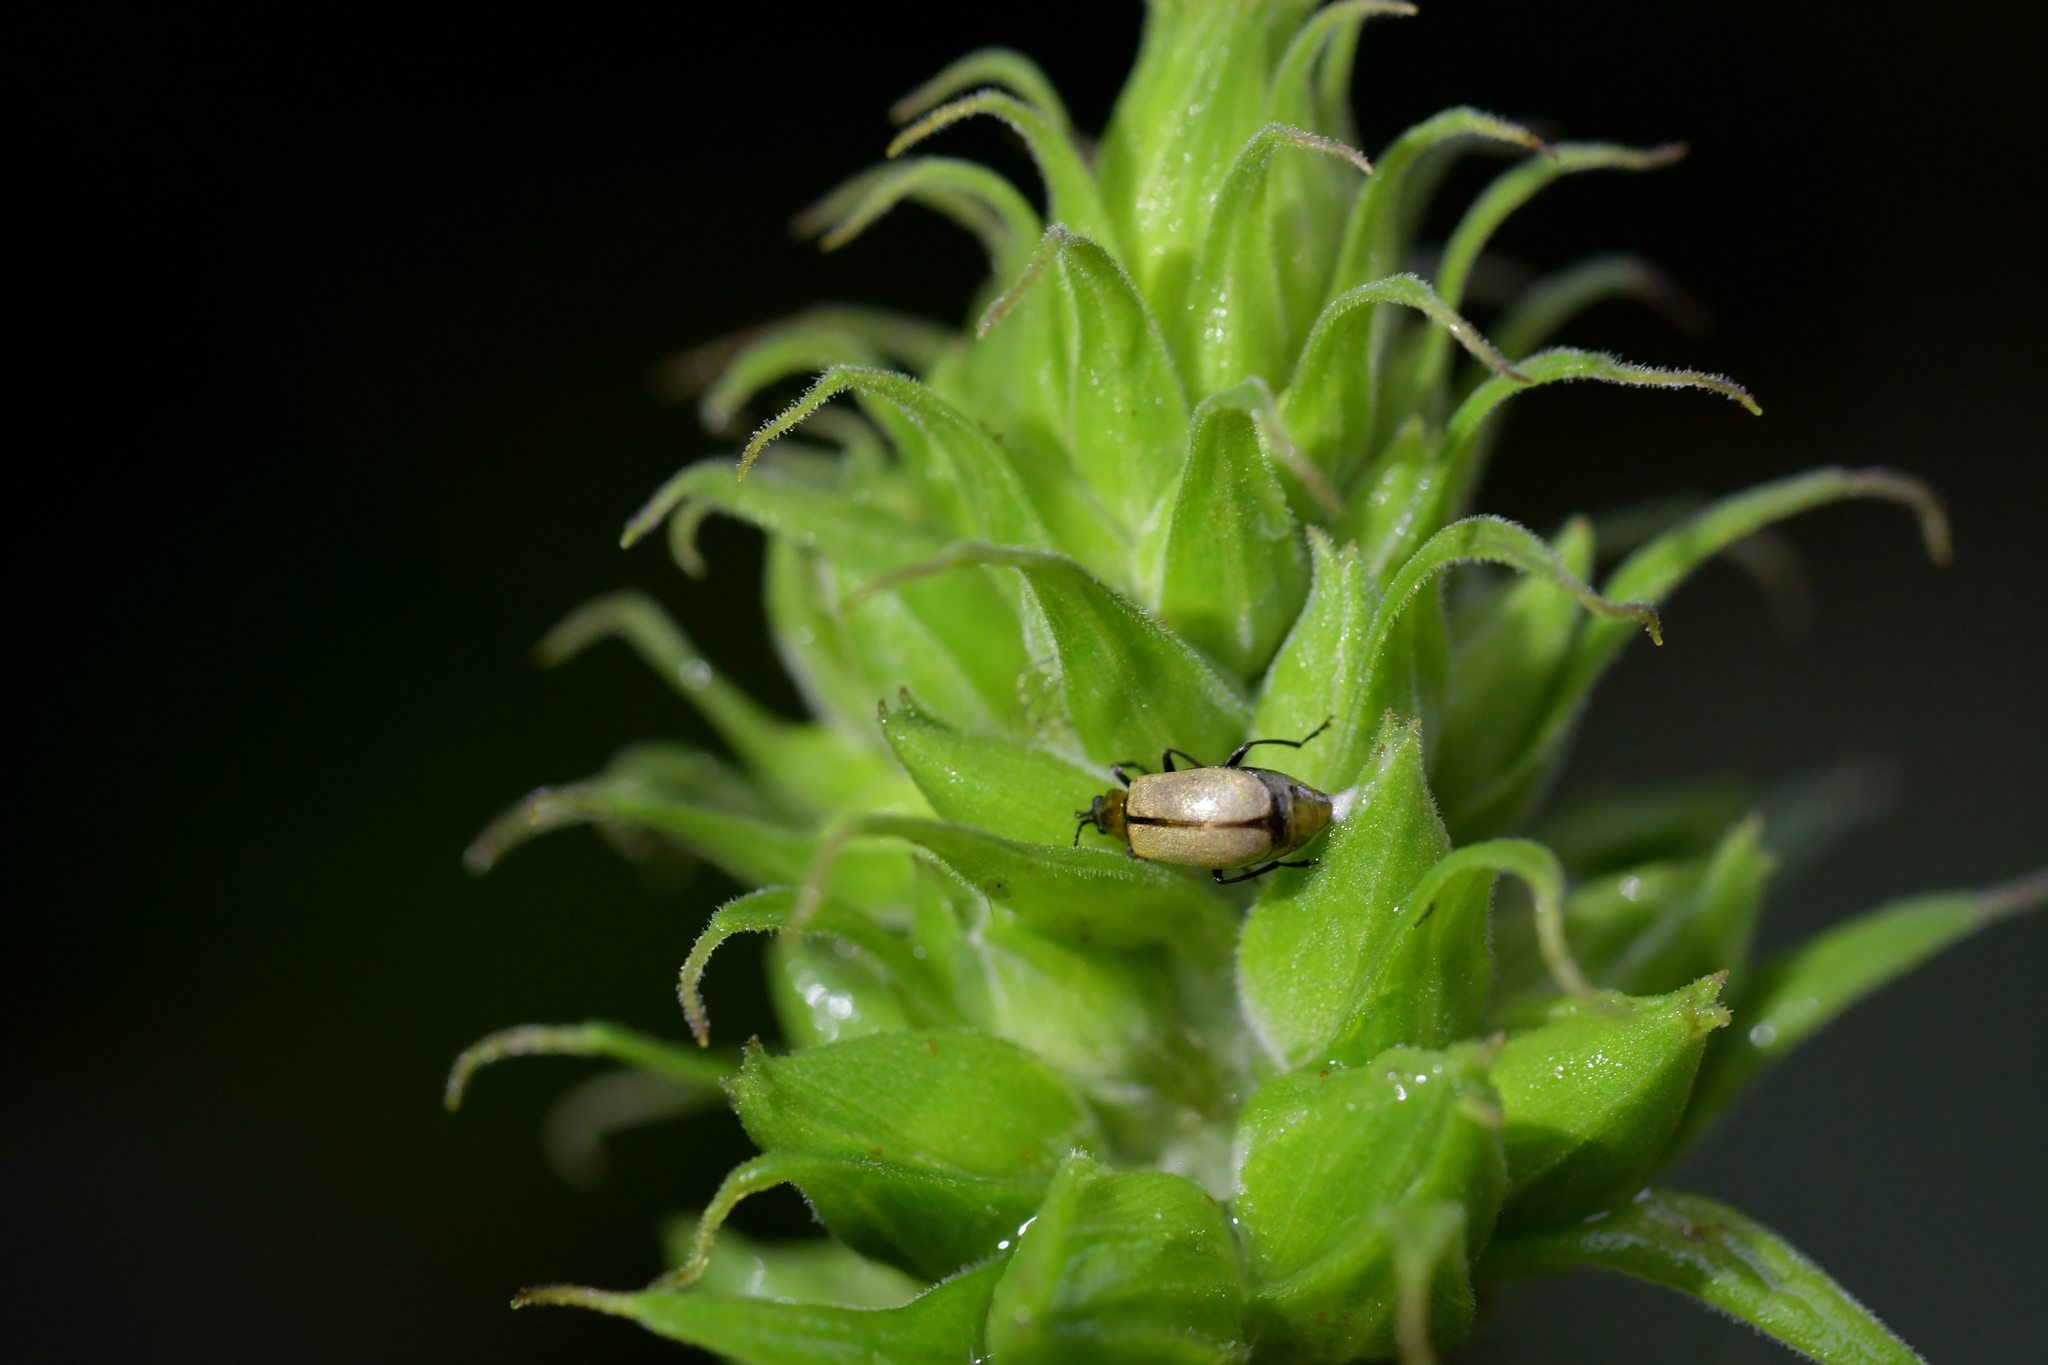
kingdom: Animalia
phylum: Arthropoda
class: Insecta
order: Coleoptera
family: Chrysomelidae
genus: Adoxia
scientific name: Adoxia
